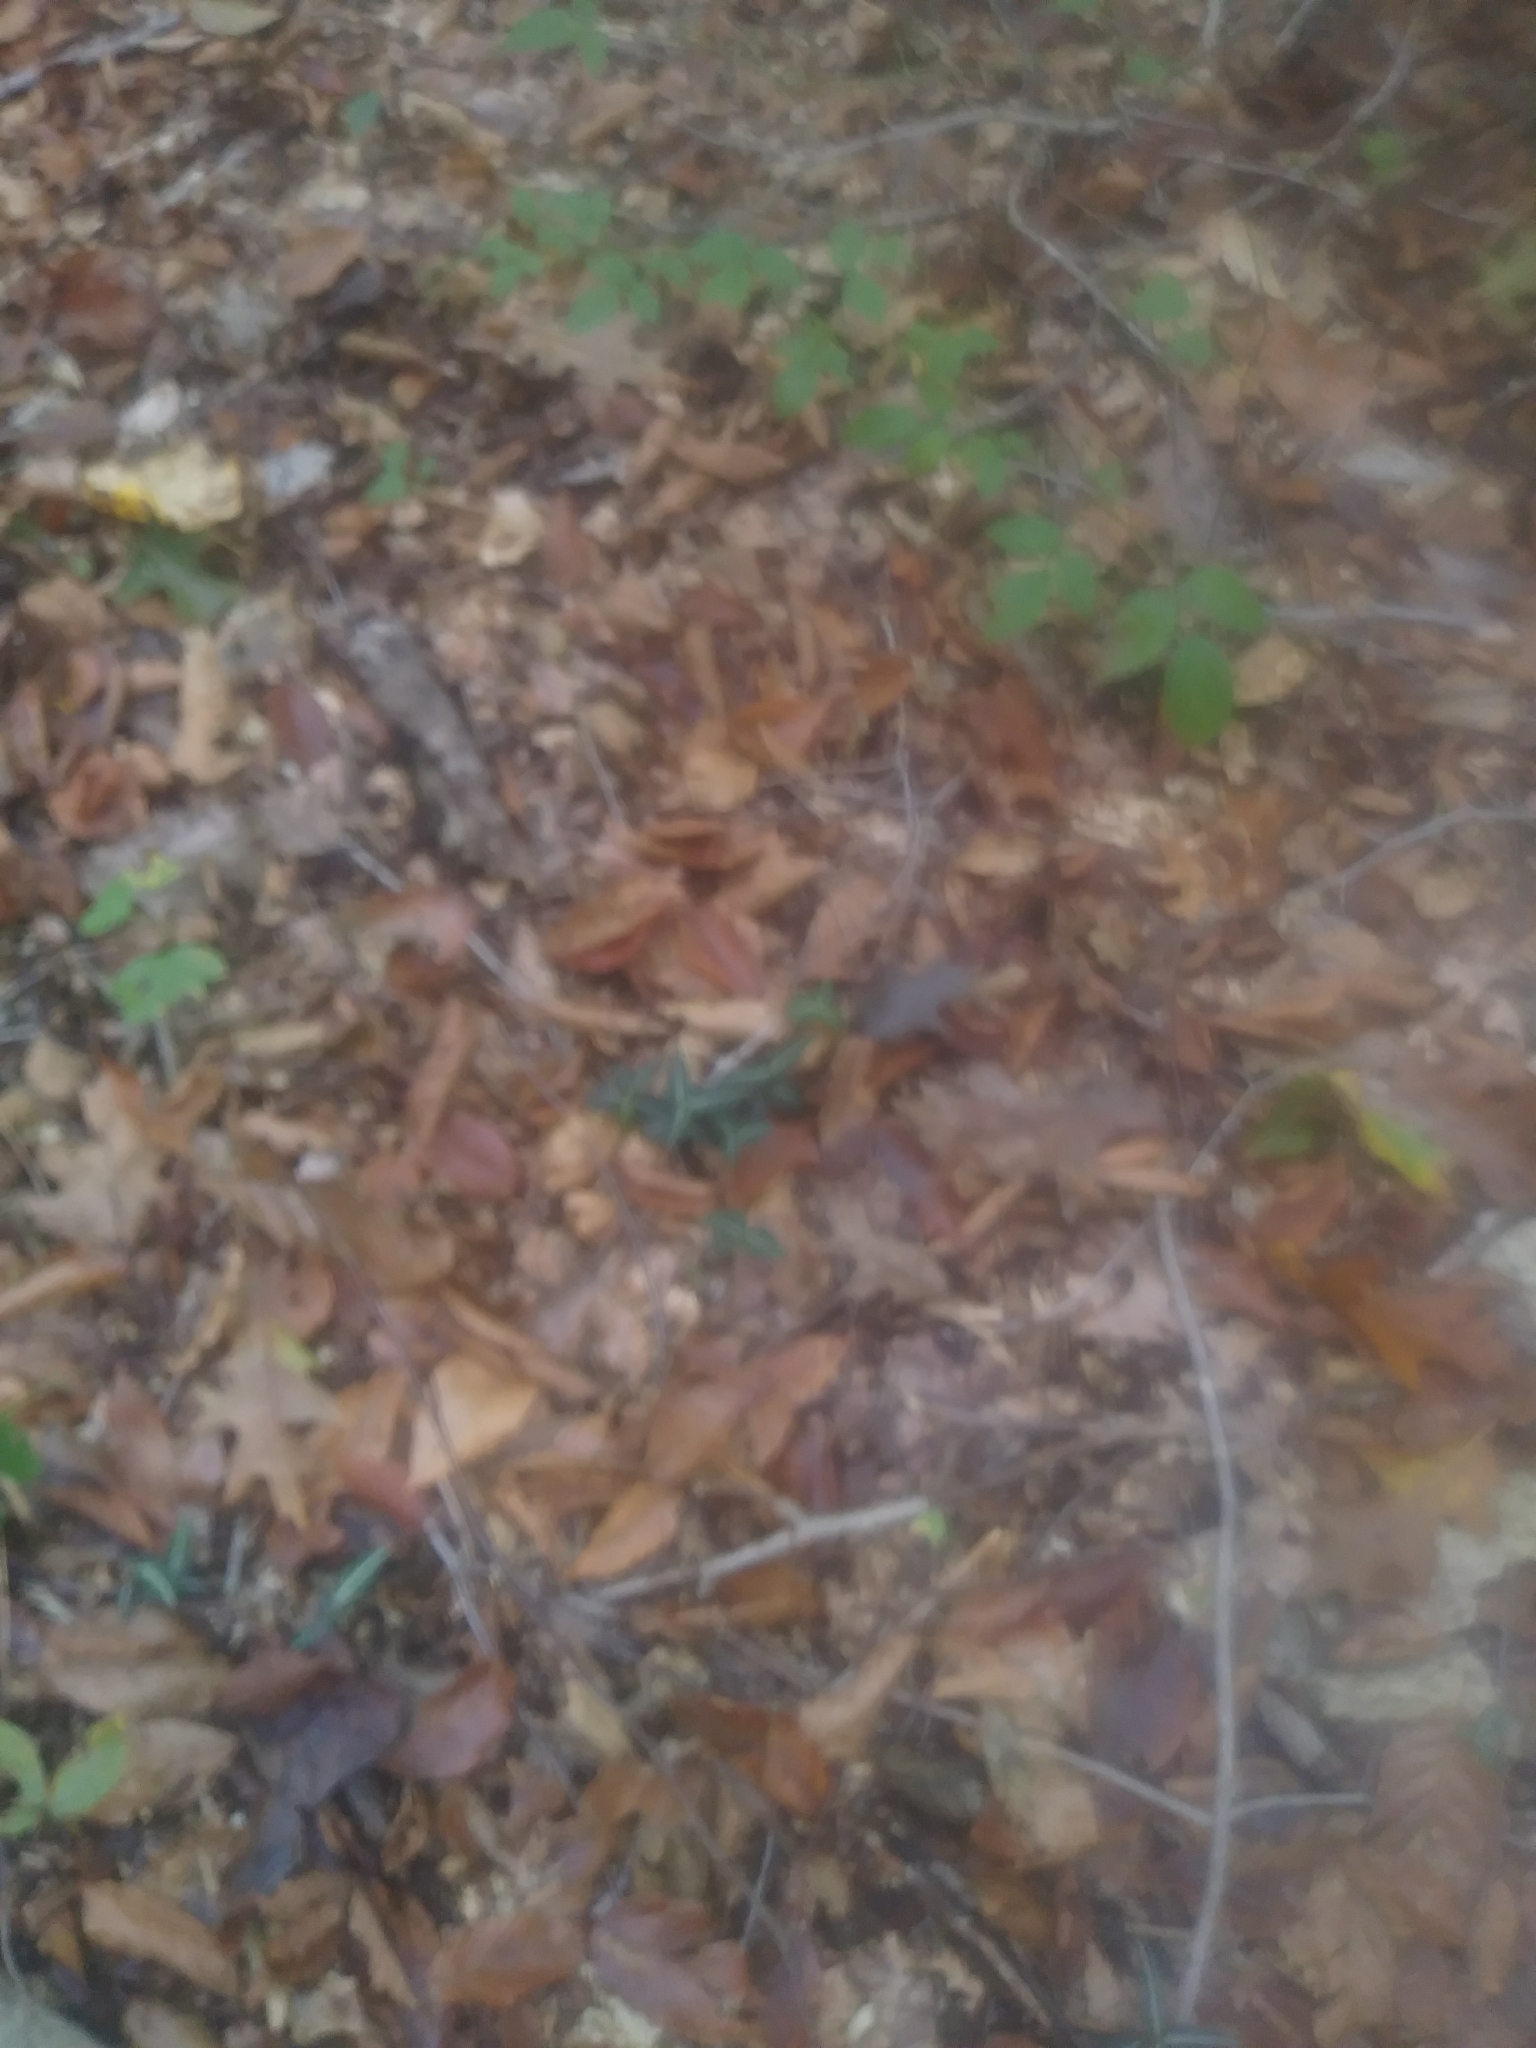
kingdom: Plantae
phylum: Tracheophyta
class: Magnoliopsida
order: Ericales
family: Ericaceae
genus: Chimaphila
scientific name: Chimaphila maculata
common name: Spotted pipsissewa
